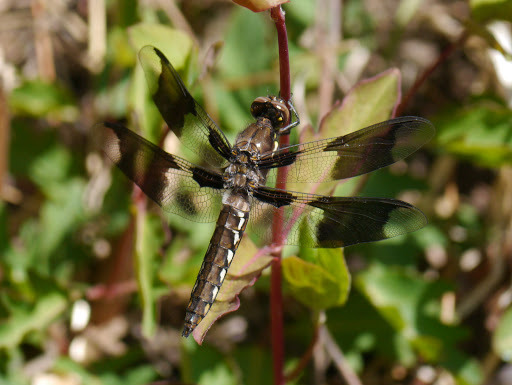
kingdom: Animalia
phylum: Arthropoda
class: Insecta
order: Odonata
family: Libellulidae
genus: Plathemis
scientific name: Plathemis lydia
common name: Common whitetail
